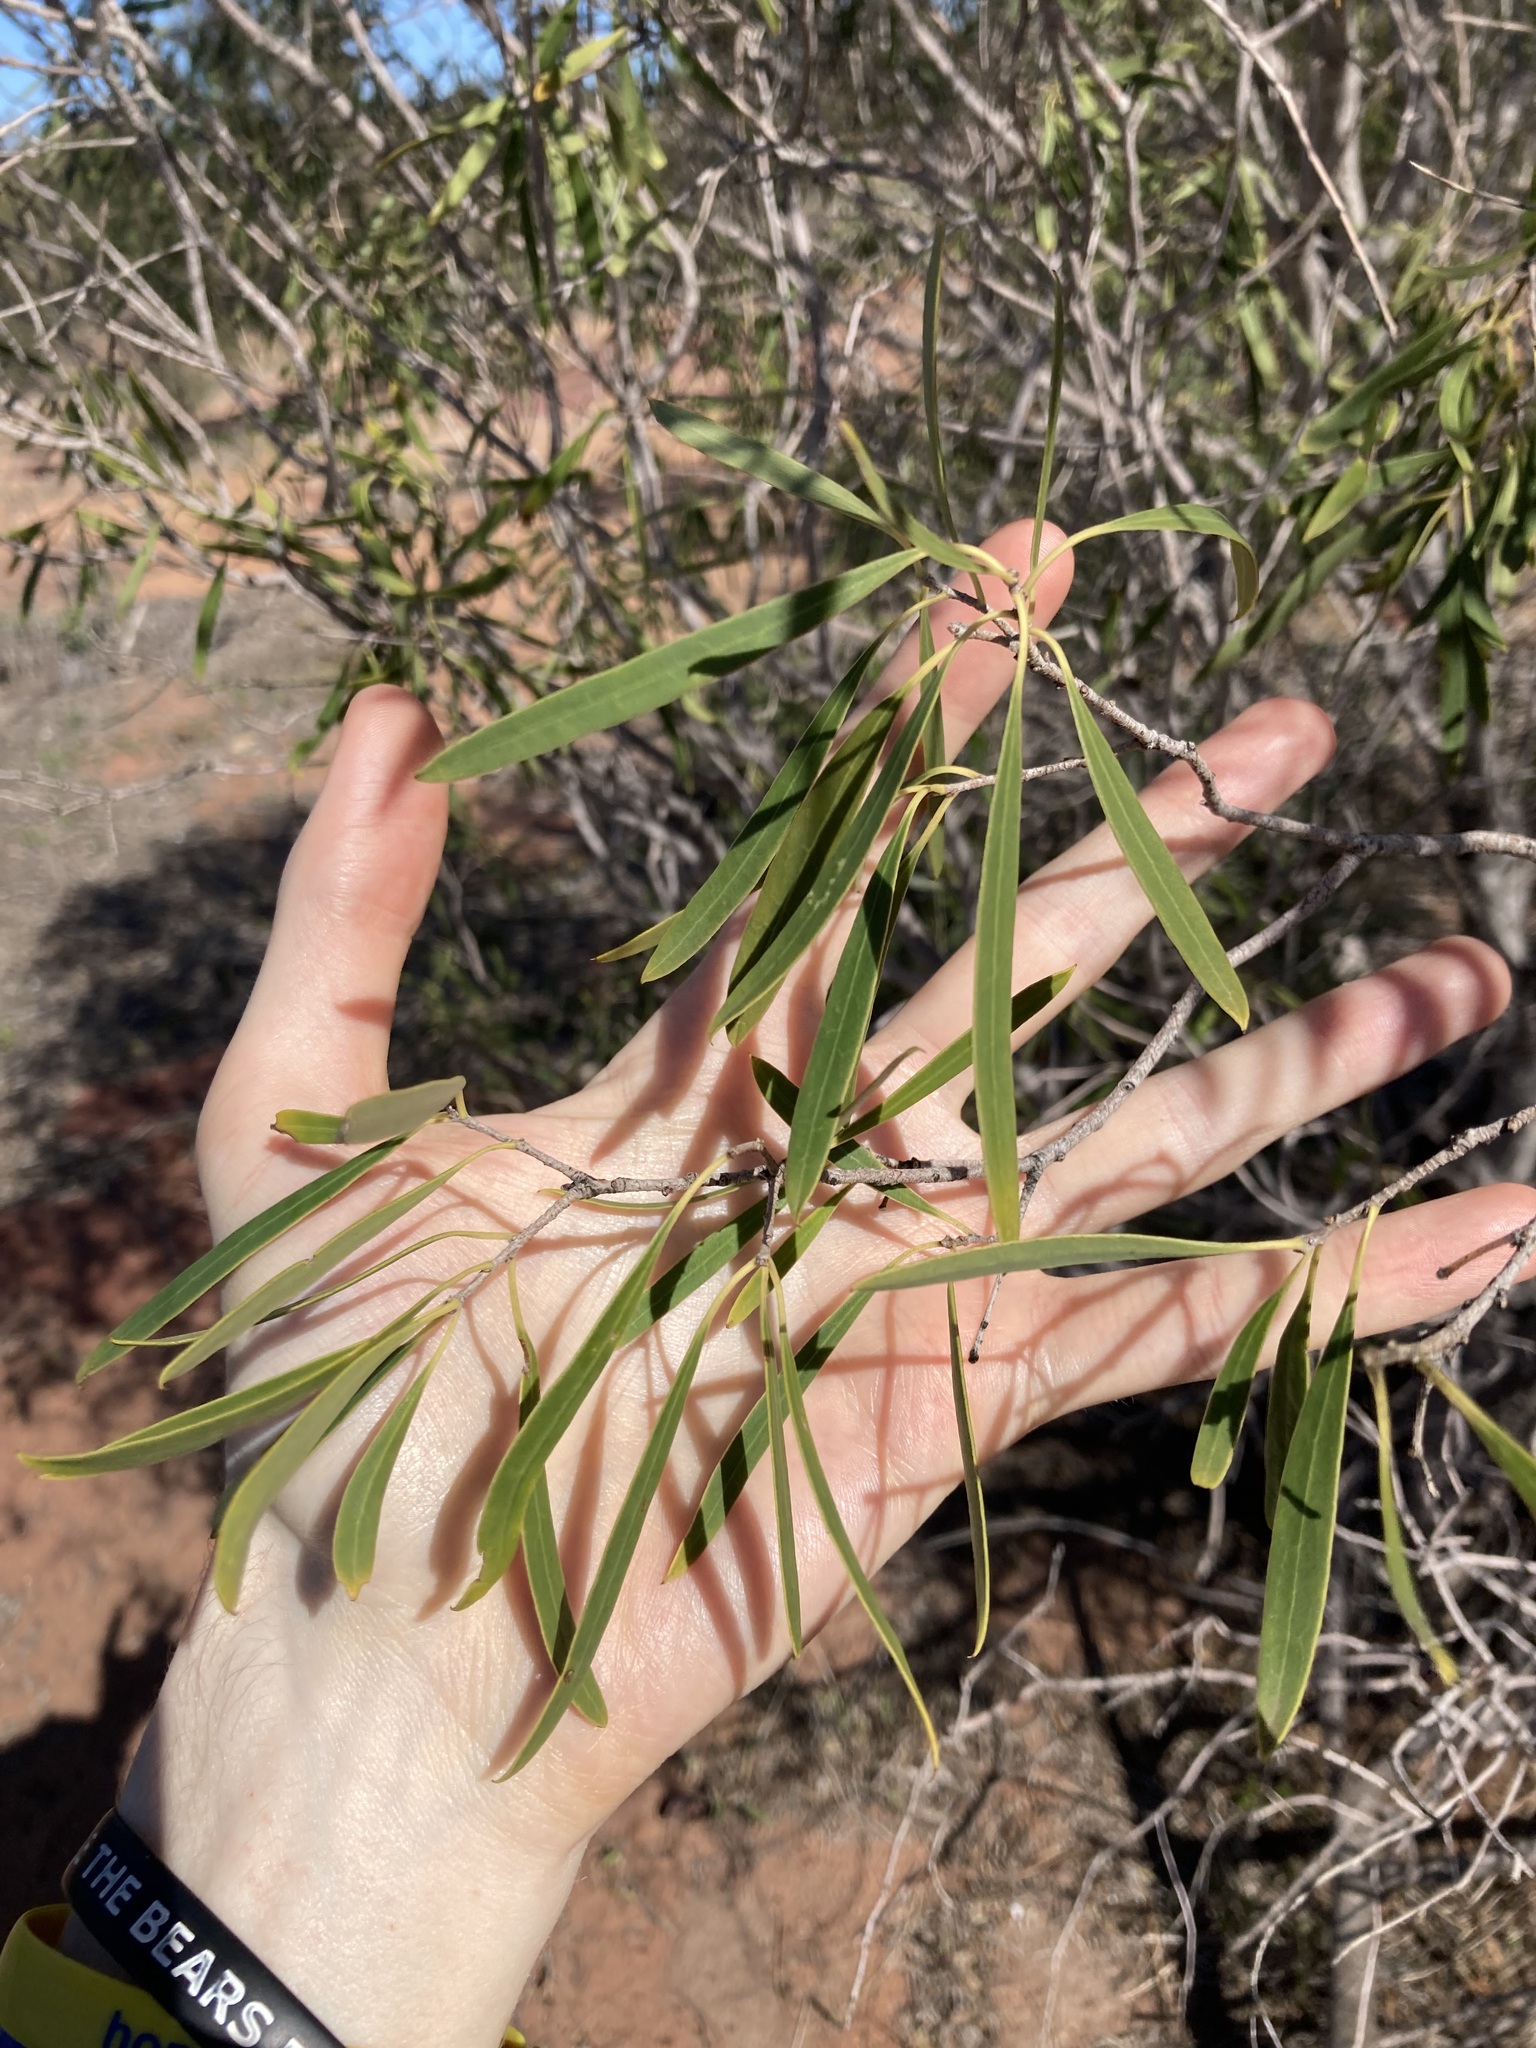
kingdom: Plantae
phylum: Tracheophyta
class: Magnoliopsida
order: Apiales
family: Pittosporaceae
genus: Pittosporum
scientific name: Pittosporum angustifolium
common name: Weeping pittosporum
